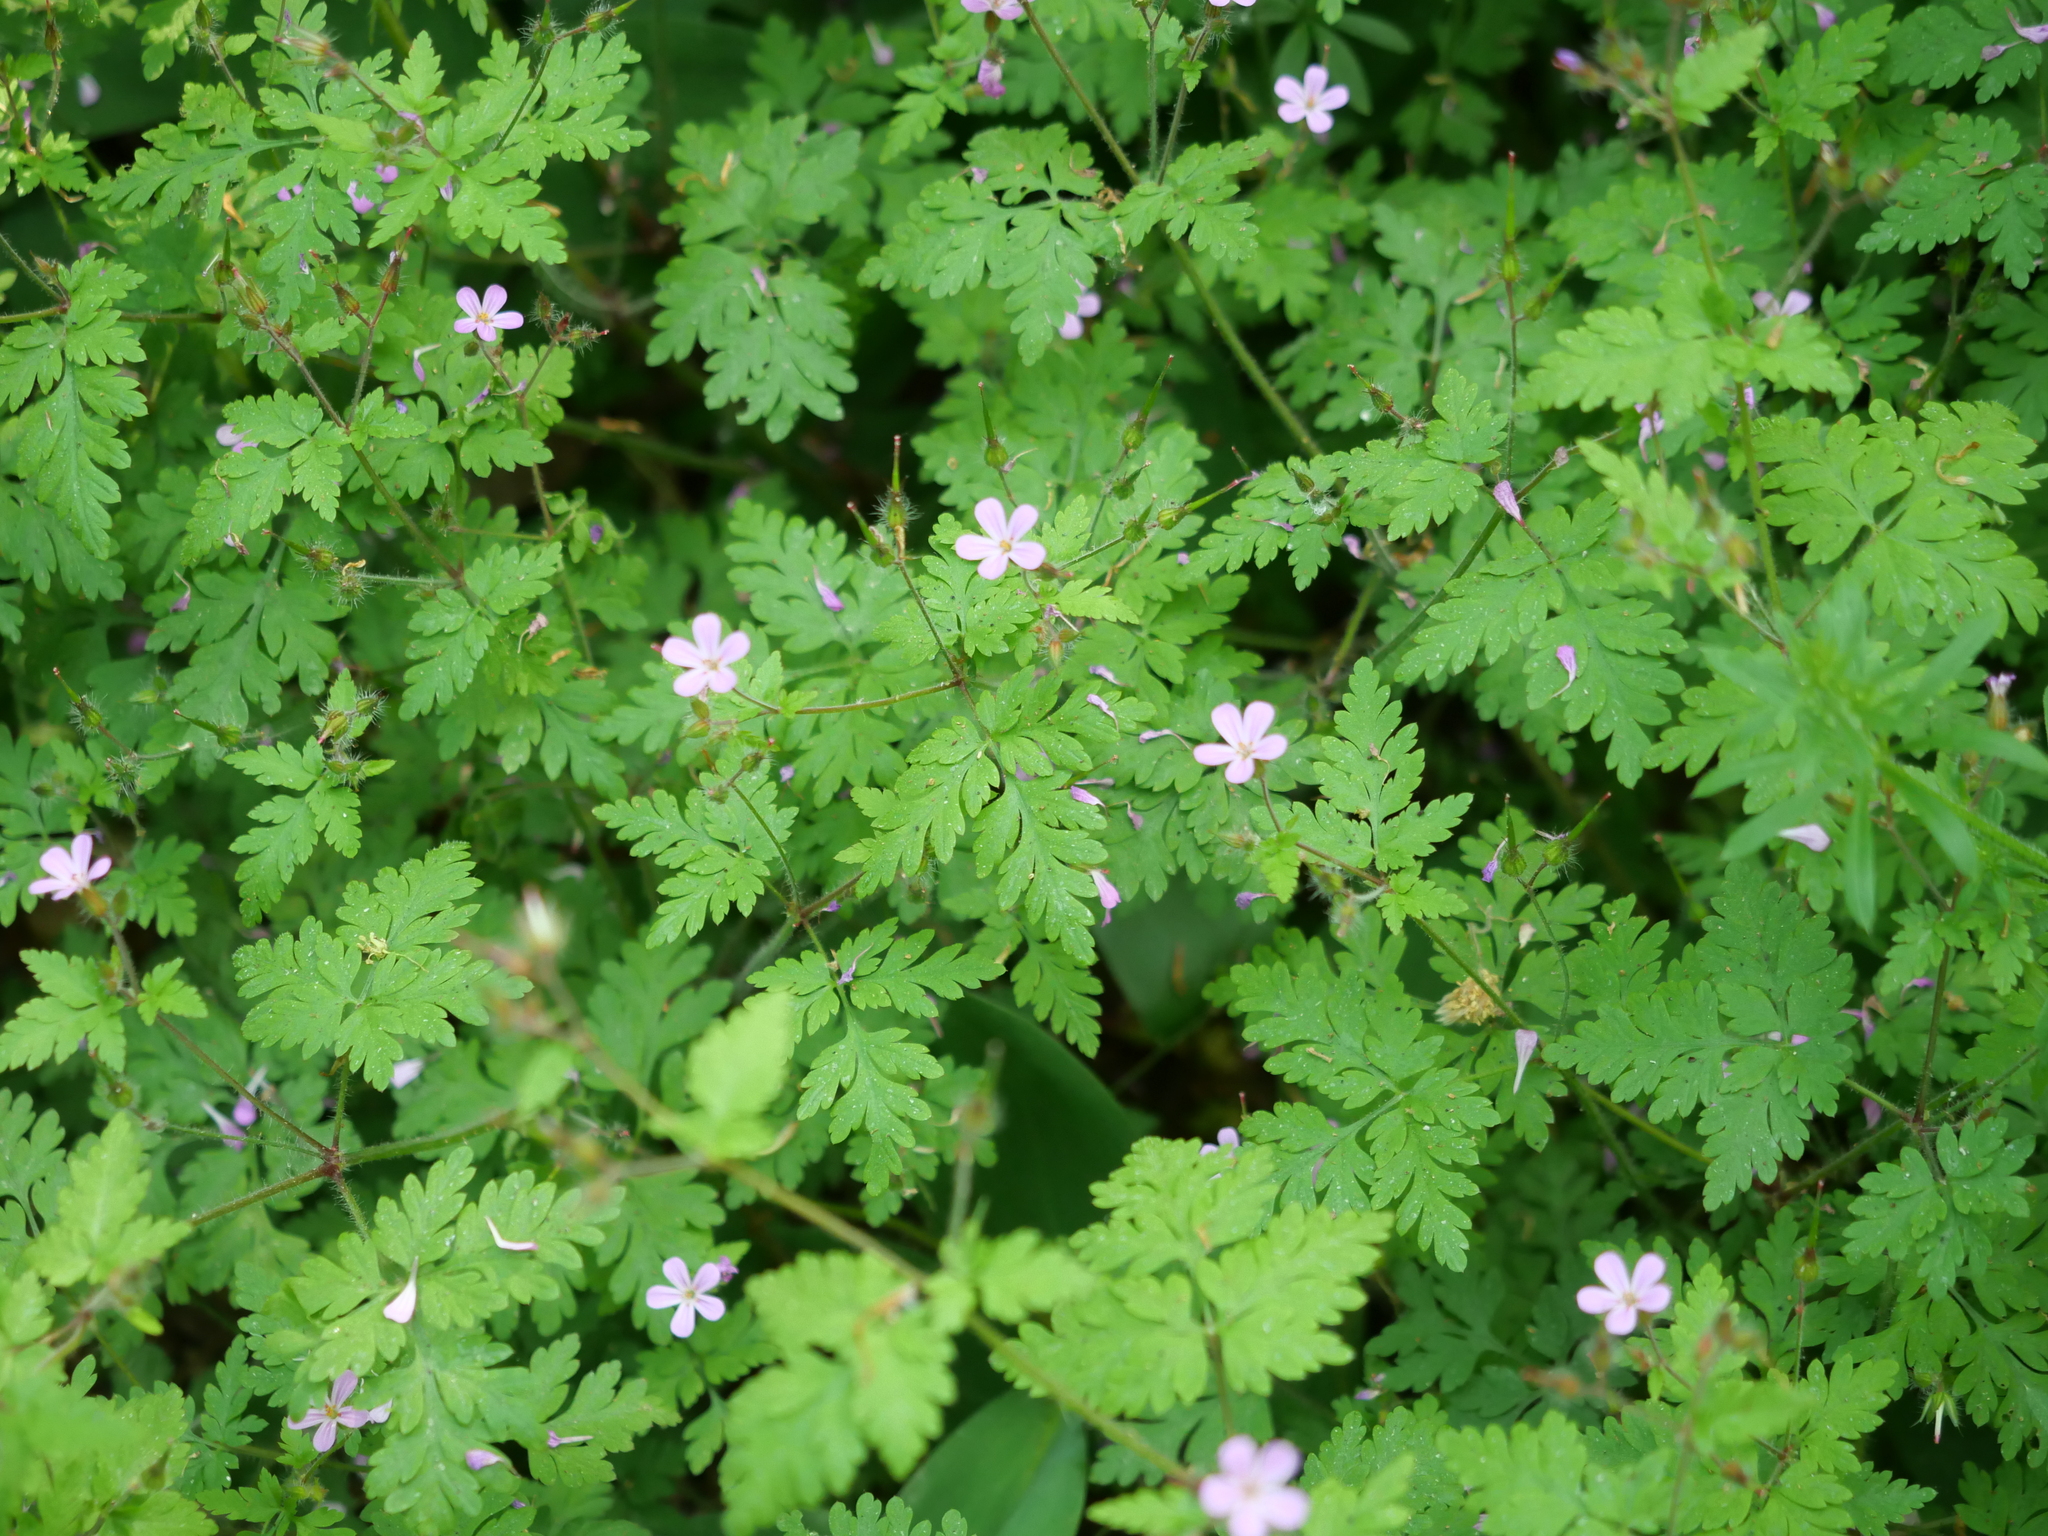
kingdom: Plantae
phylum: Tracheophyta
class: Magnoliopsida
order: Geraniales
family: Geraniaceae
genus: Geranium
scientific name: Geranium robertianum
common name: Herb-robert
